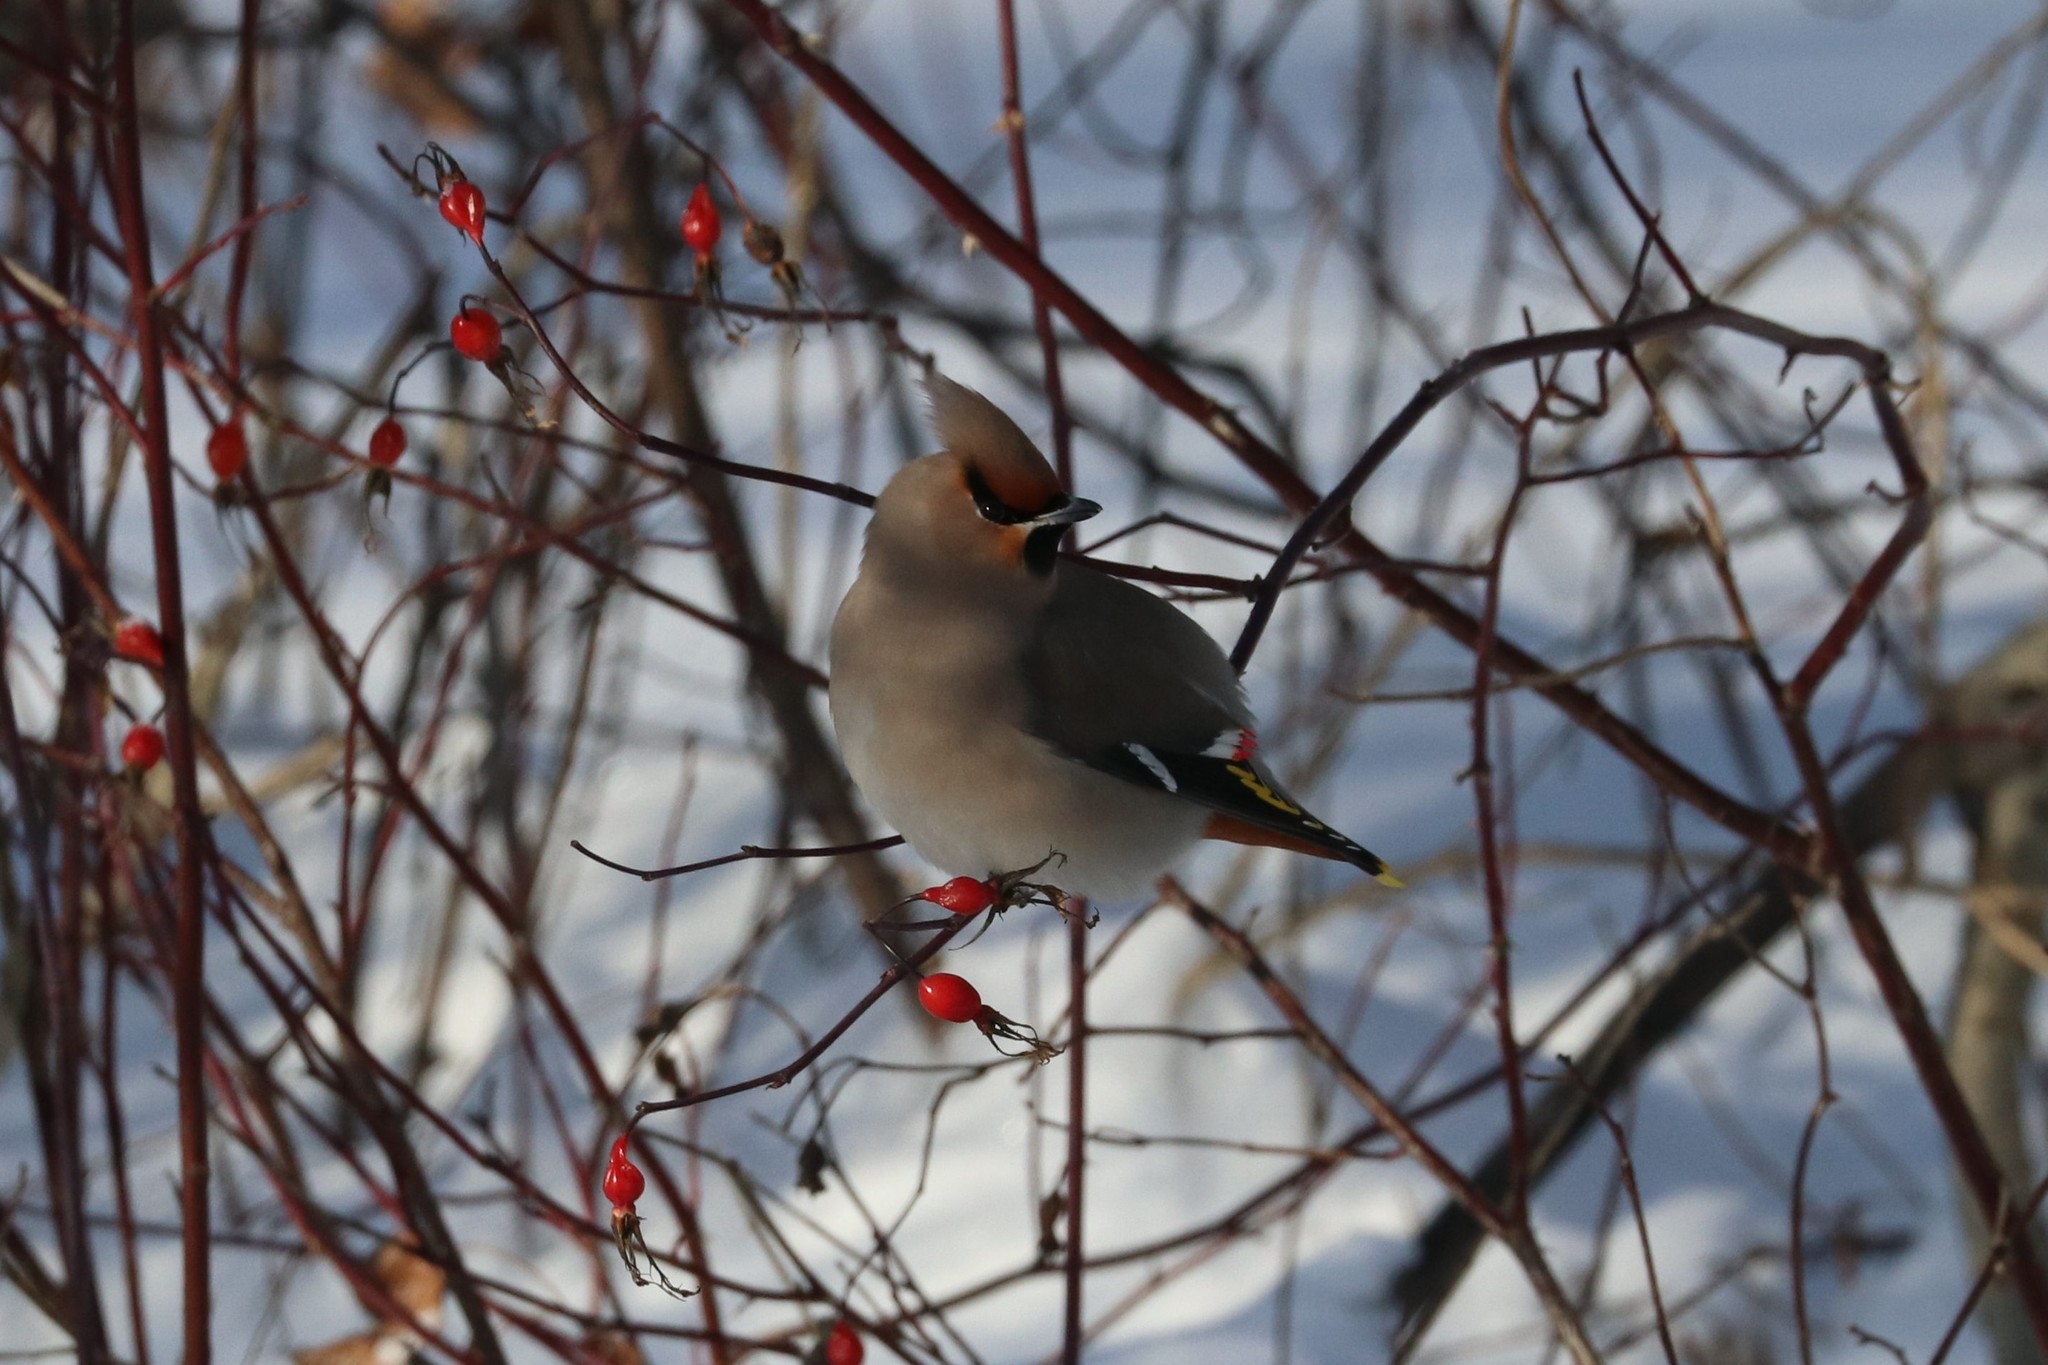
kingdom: Animalia
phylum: Chordata
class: Aves
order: Passeriformes
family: Bombycillidae
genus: Bombycilla
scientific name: Bombycilla garrulus
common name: Bohemian waxwing
